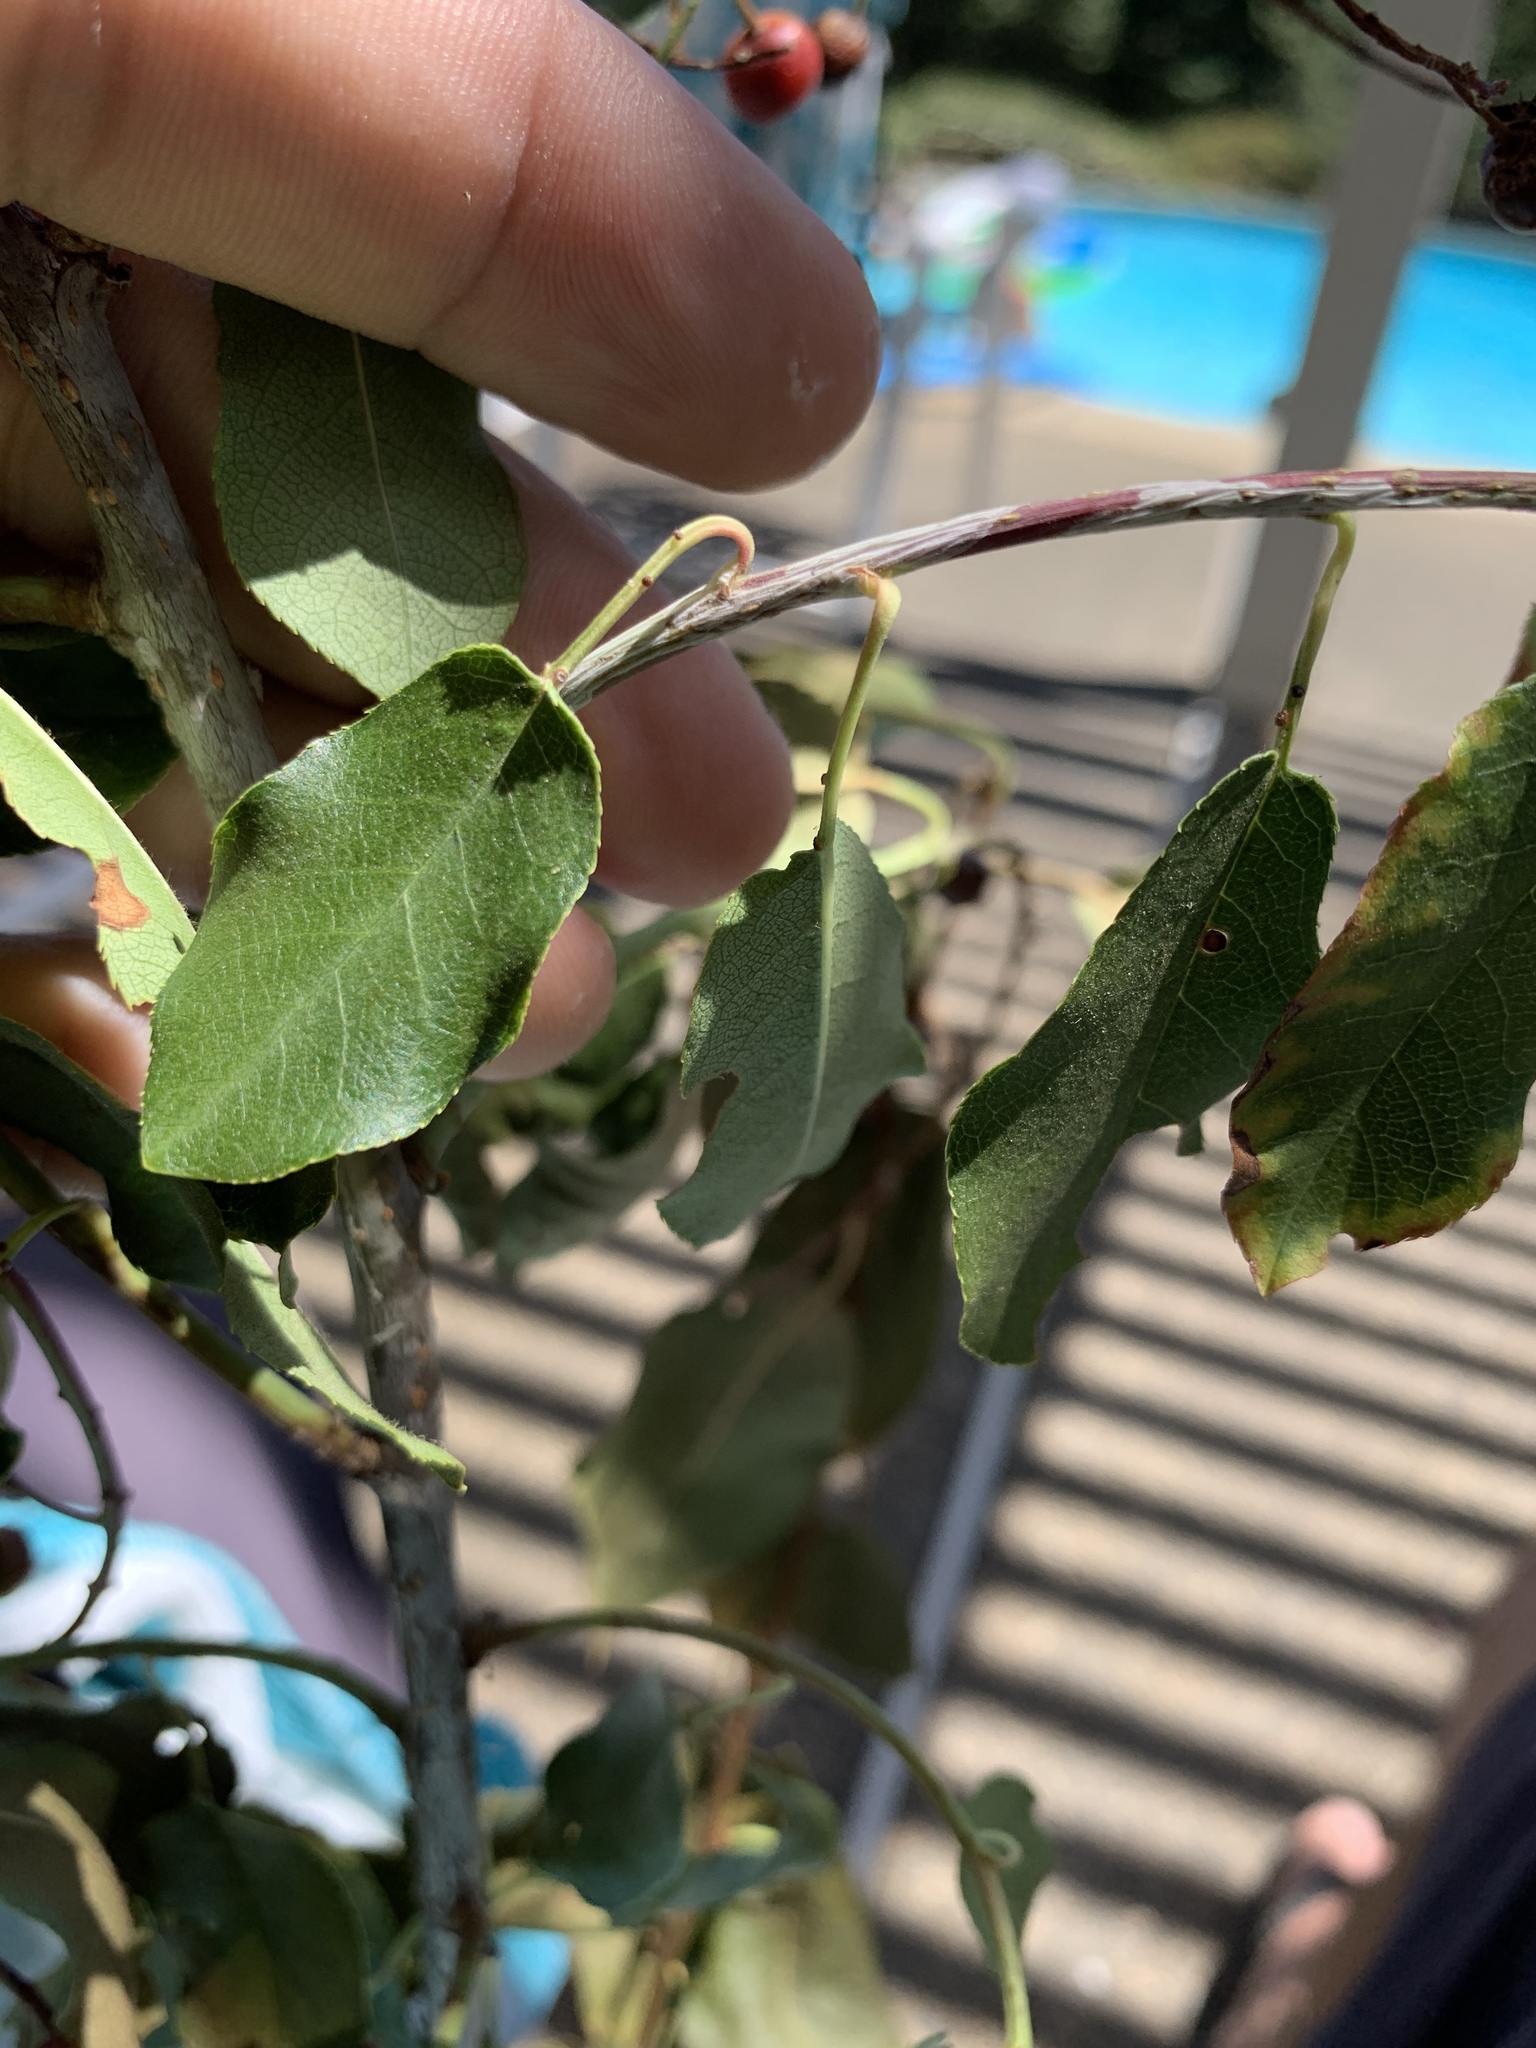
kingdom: Plantae
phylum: Tracheophyta
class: Magnoliopsida
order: Rosales
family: Rosaceae
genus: Prunus
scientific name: Prunus virginiana
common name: Chokecherry
